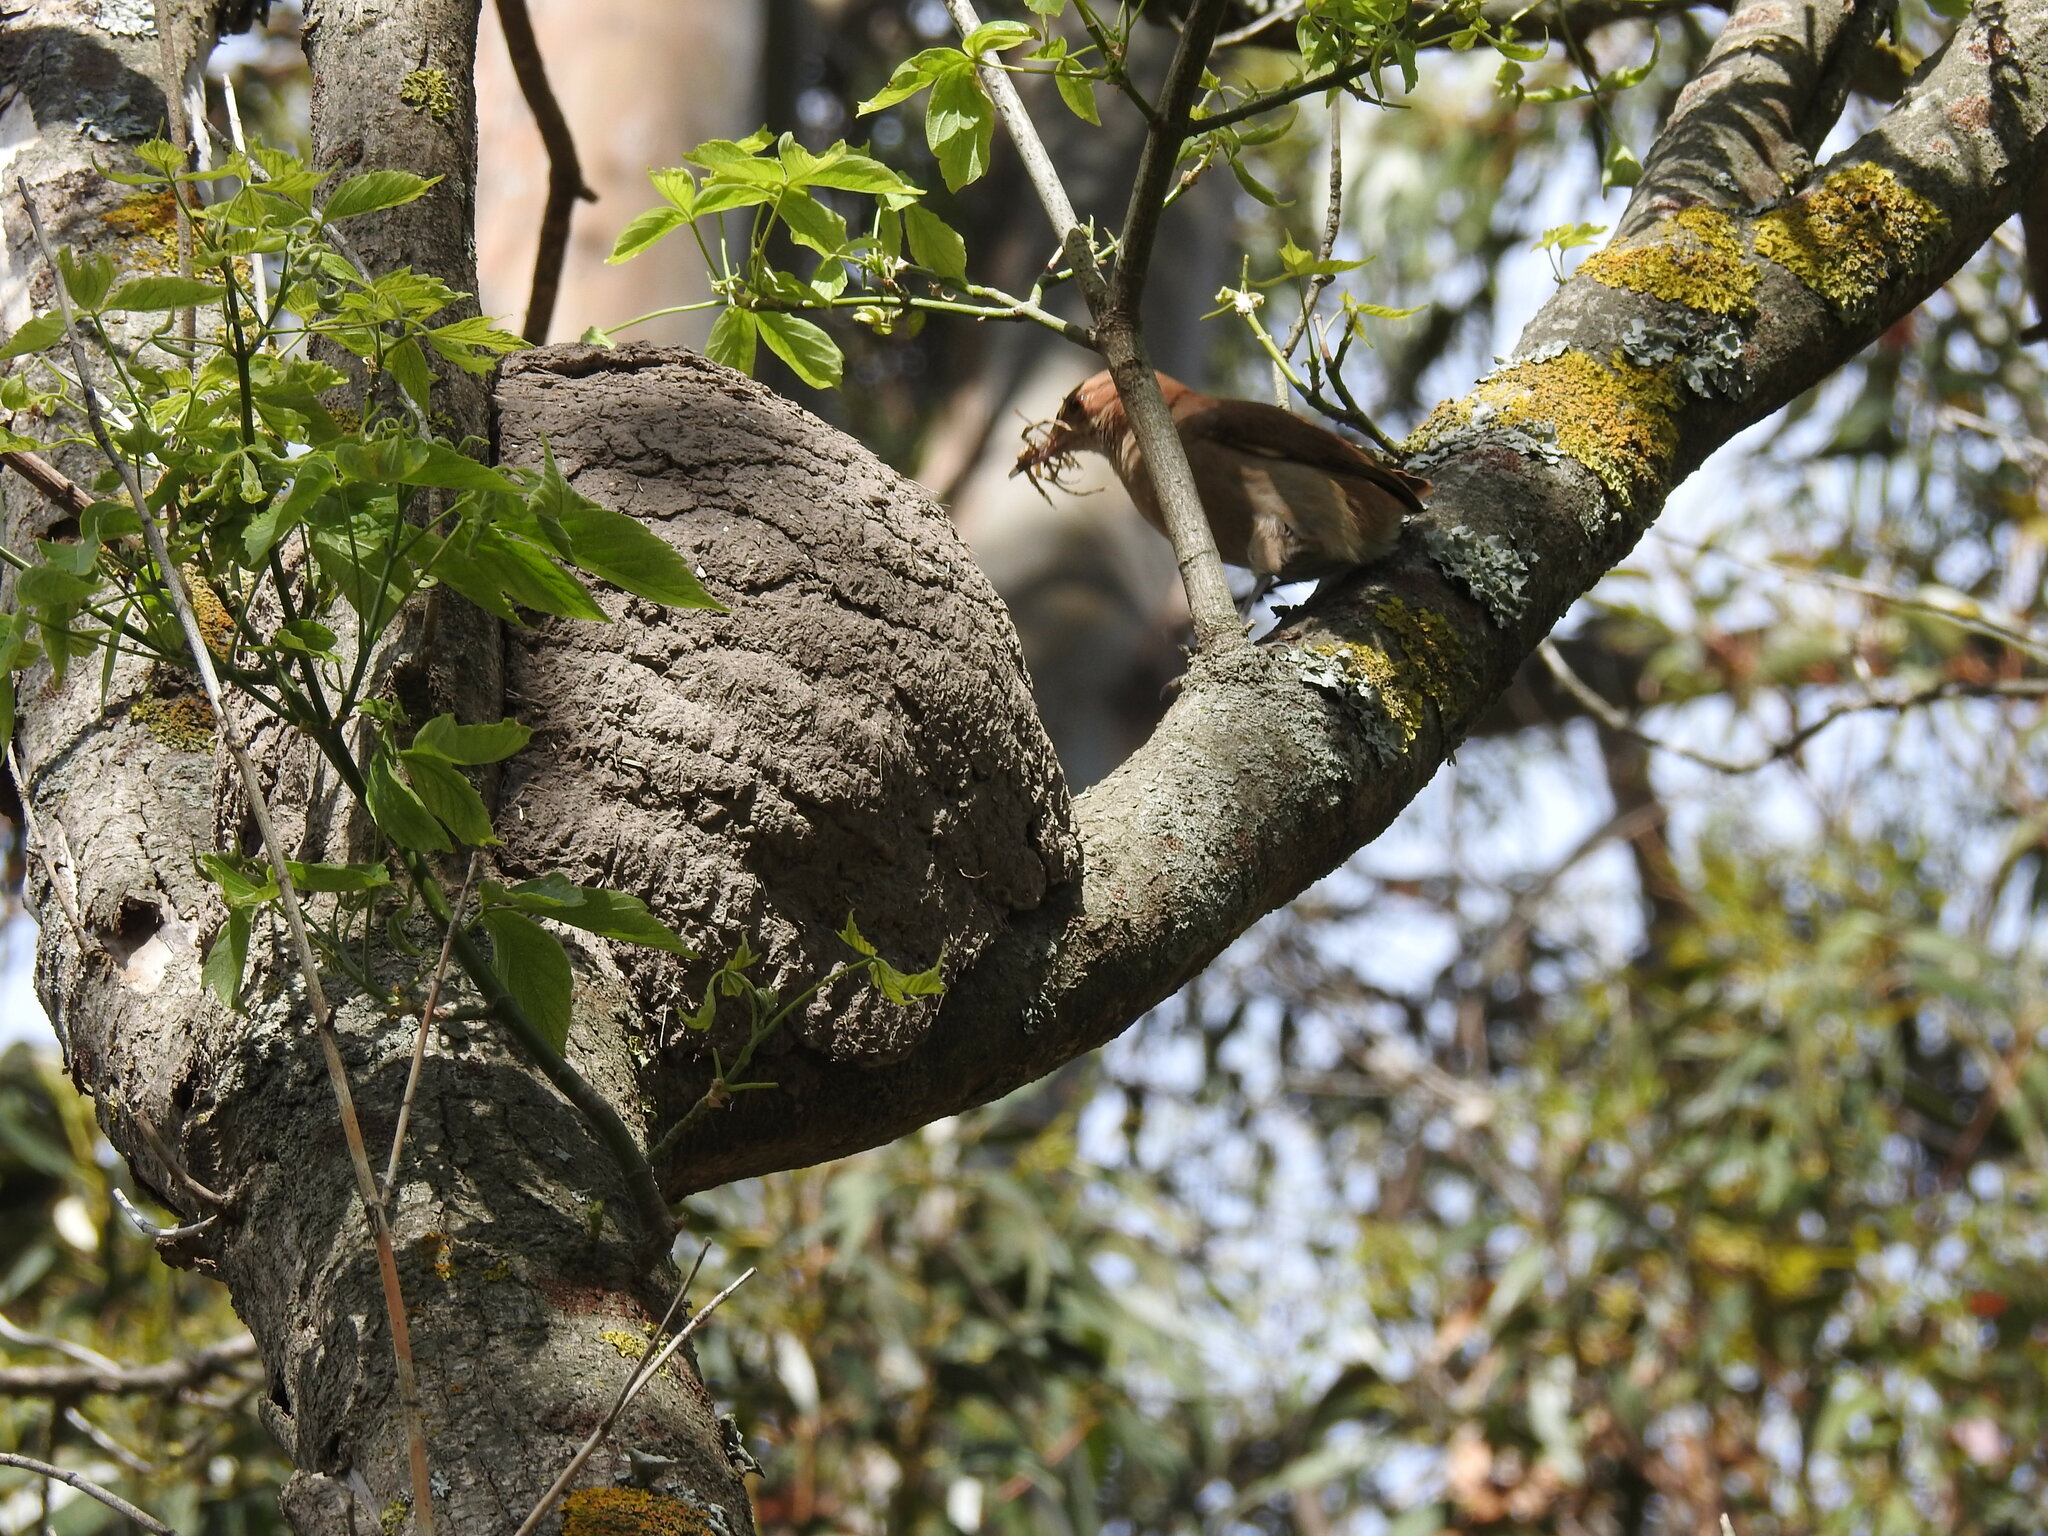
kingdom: Animalia
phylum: Chordata
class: Aves
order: Passeriformes
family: Furnariidae
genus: Furnarius
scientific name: Furnarius rufus
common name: Rufous hornero
